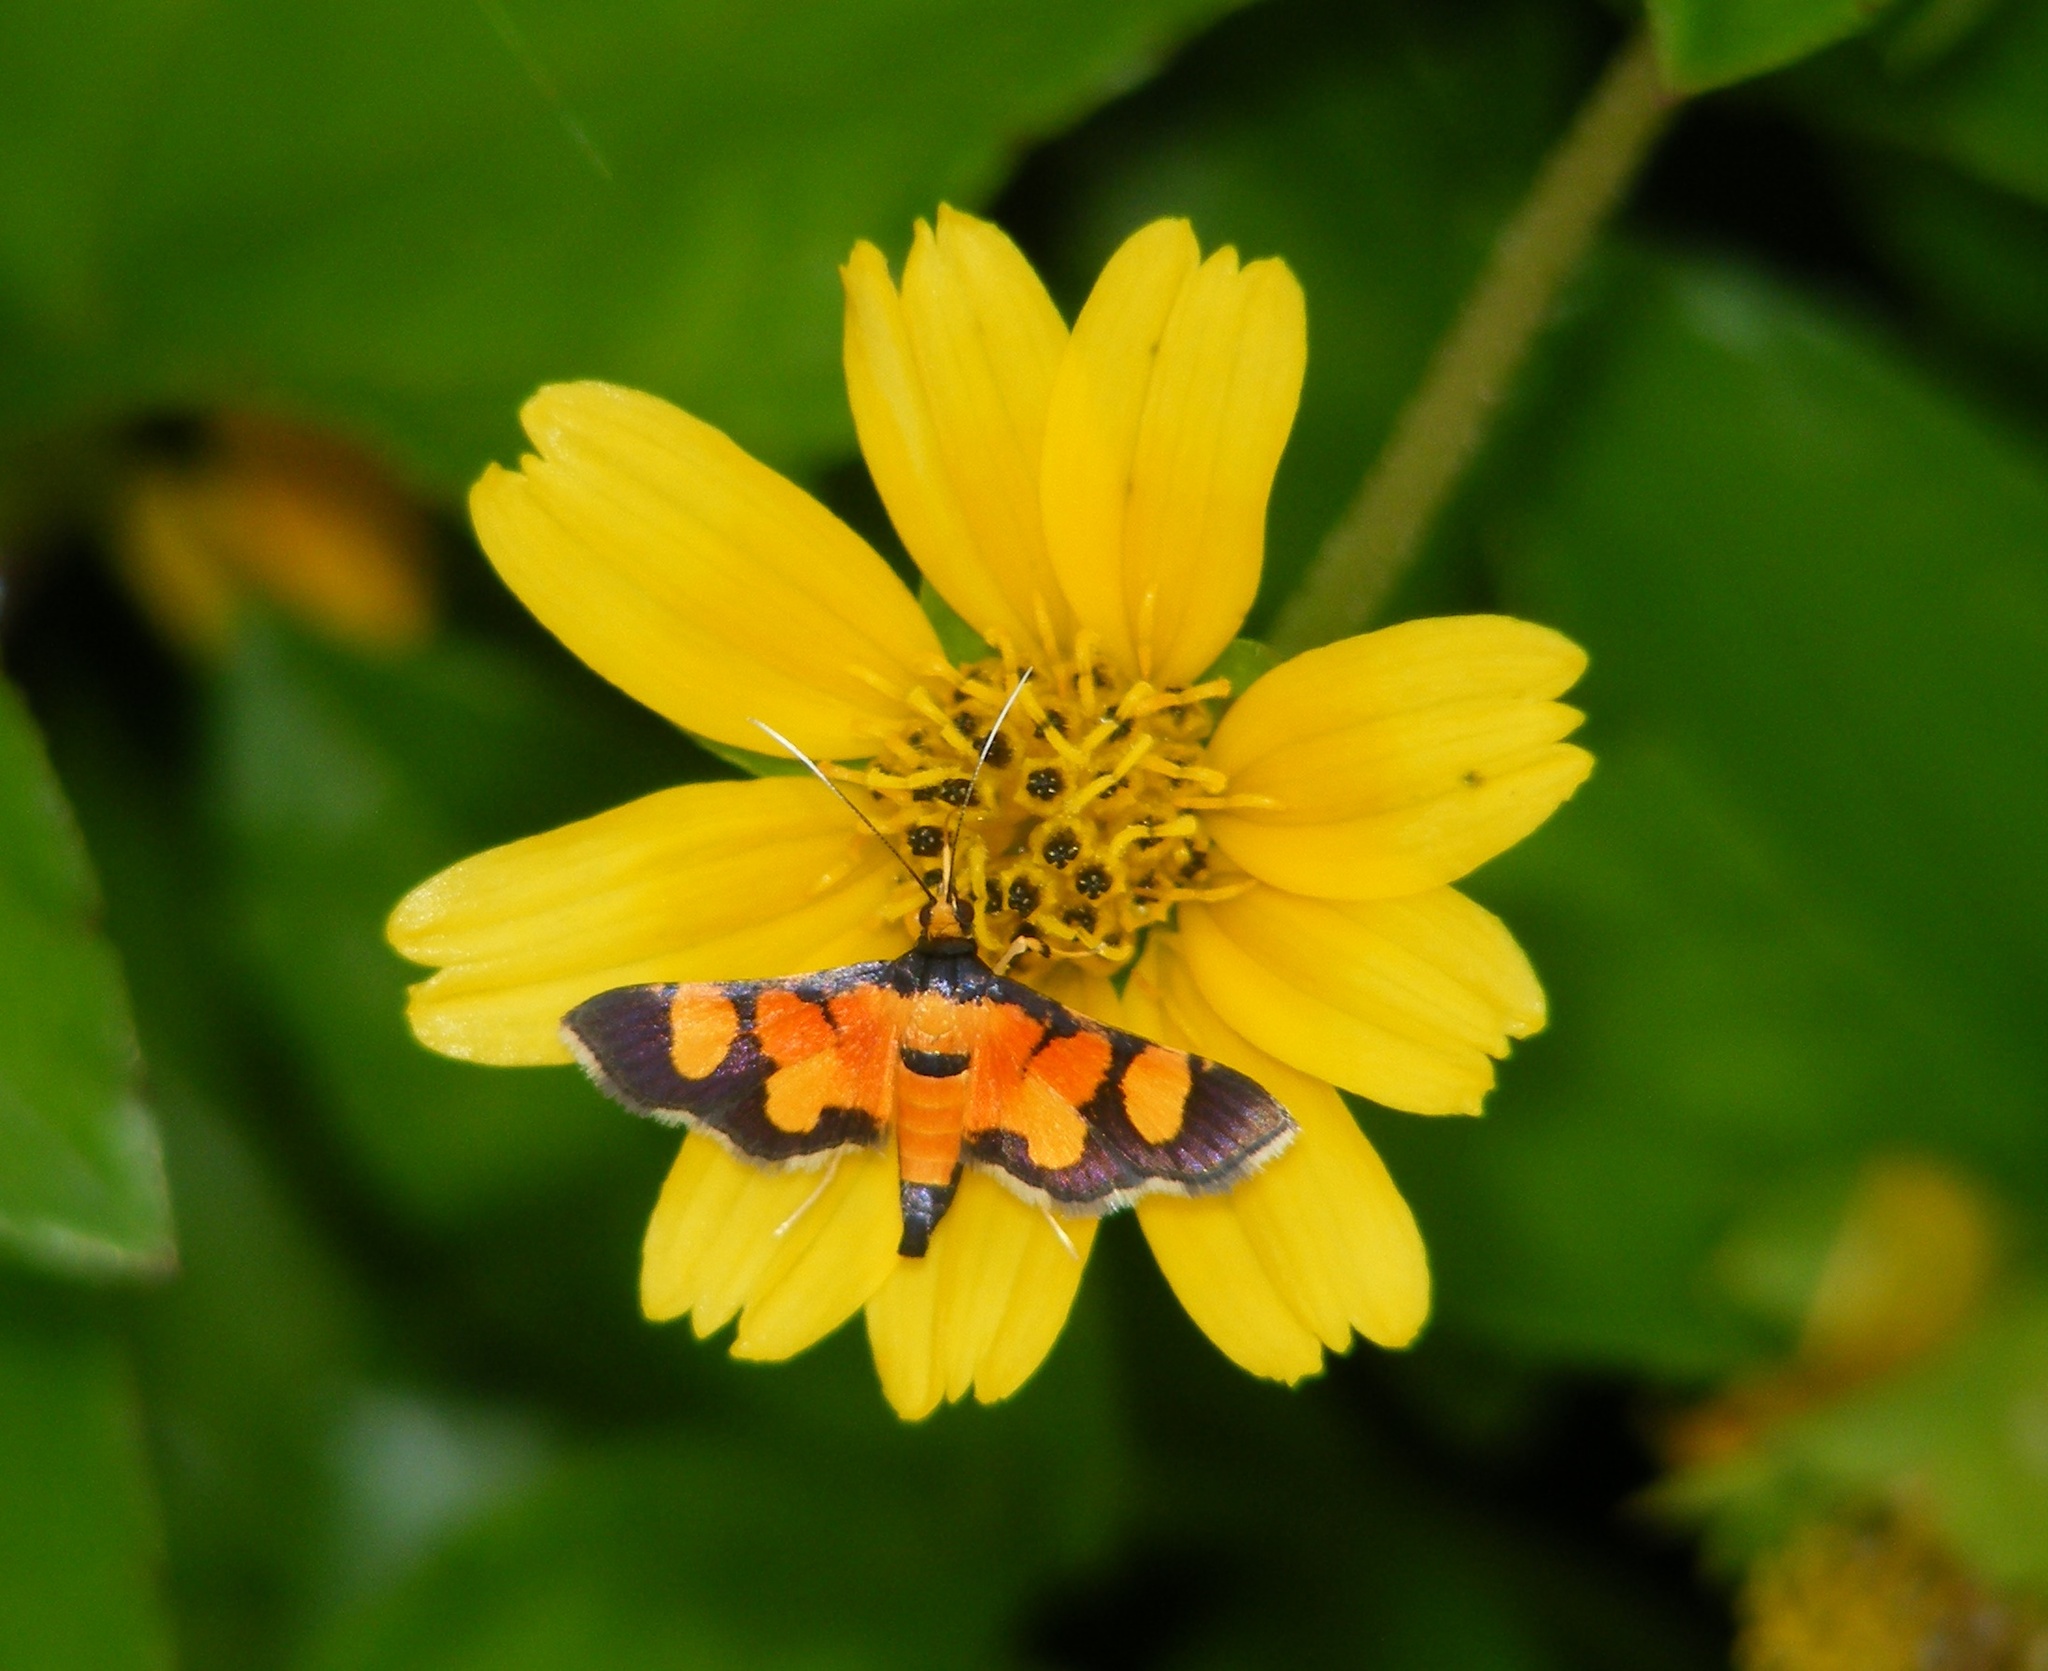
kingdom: Animalia
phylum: Arthropoda
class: Insecta
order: Lepidoptera
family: Crambidae
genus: Aethaloessa
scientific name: Aethaloessa calidalis
